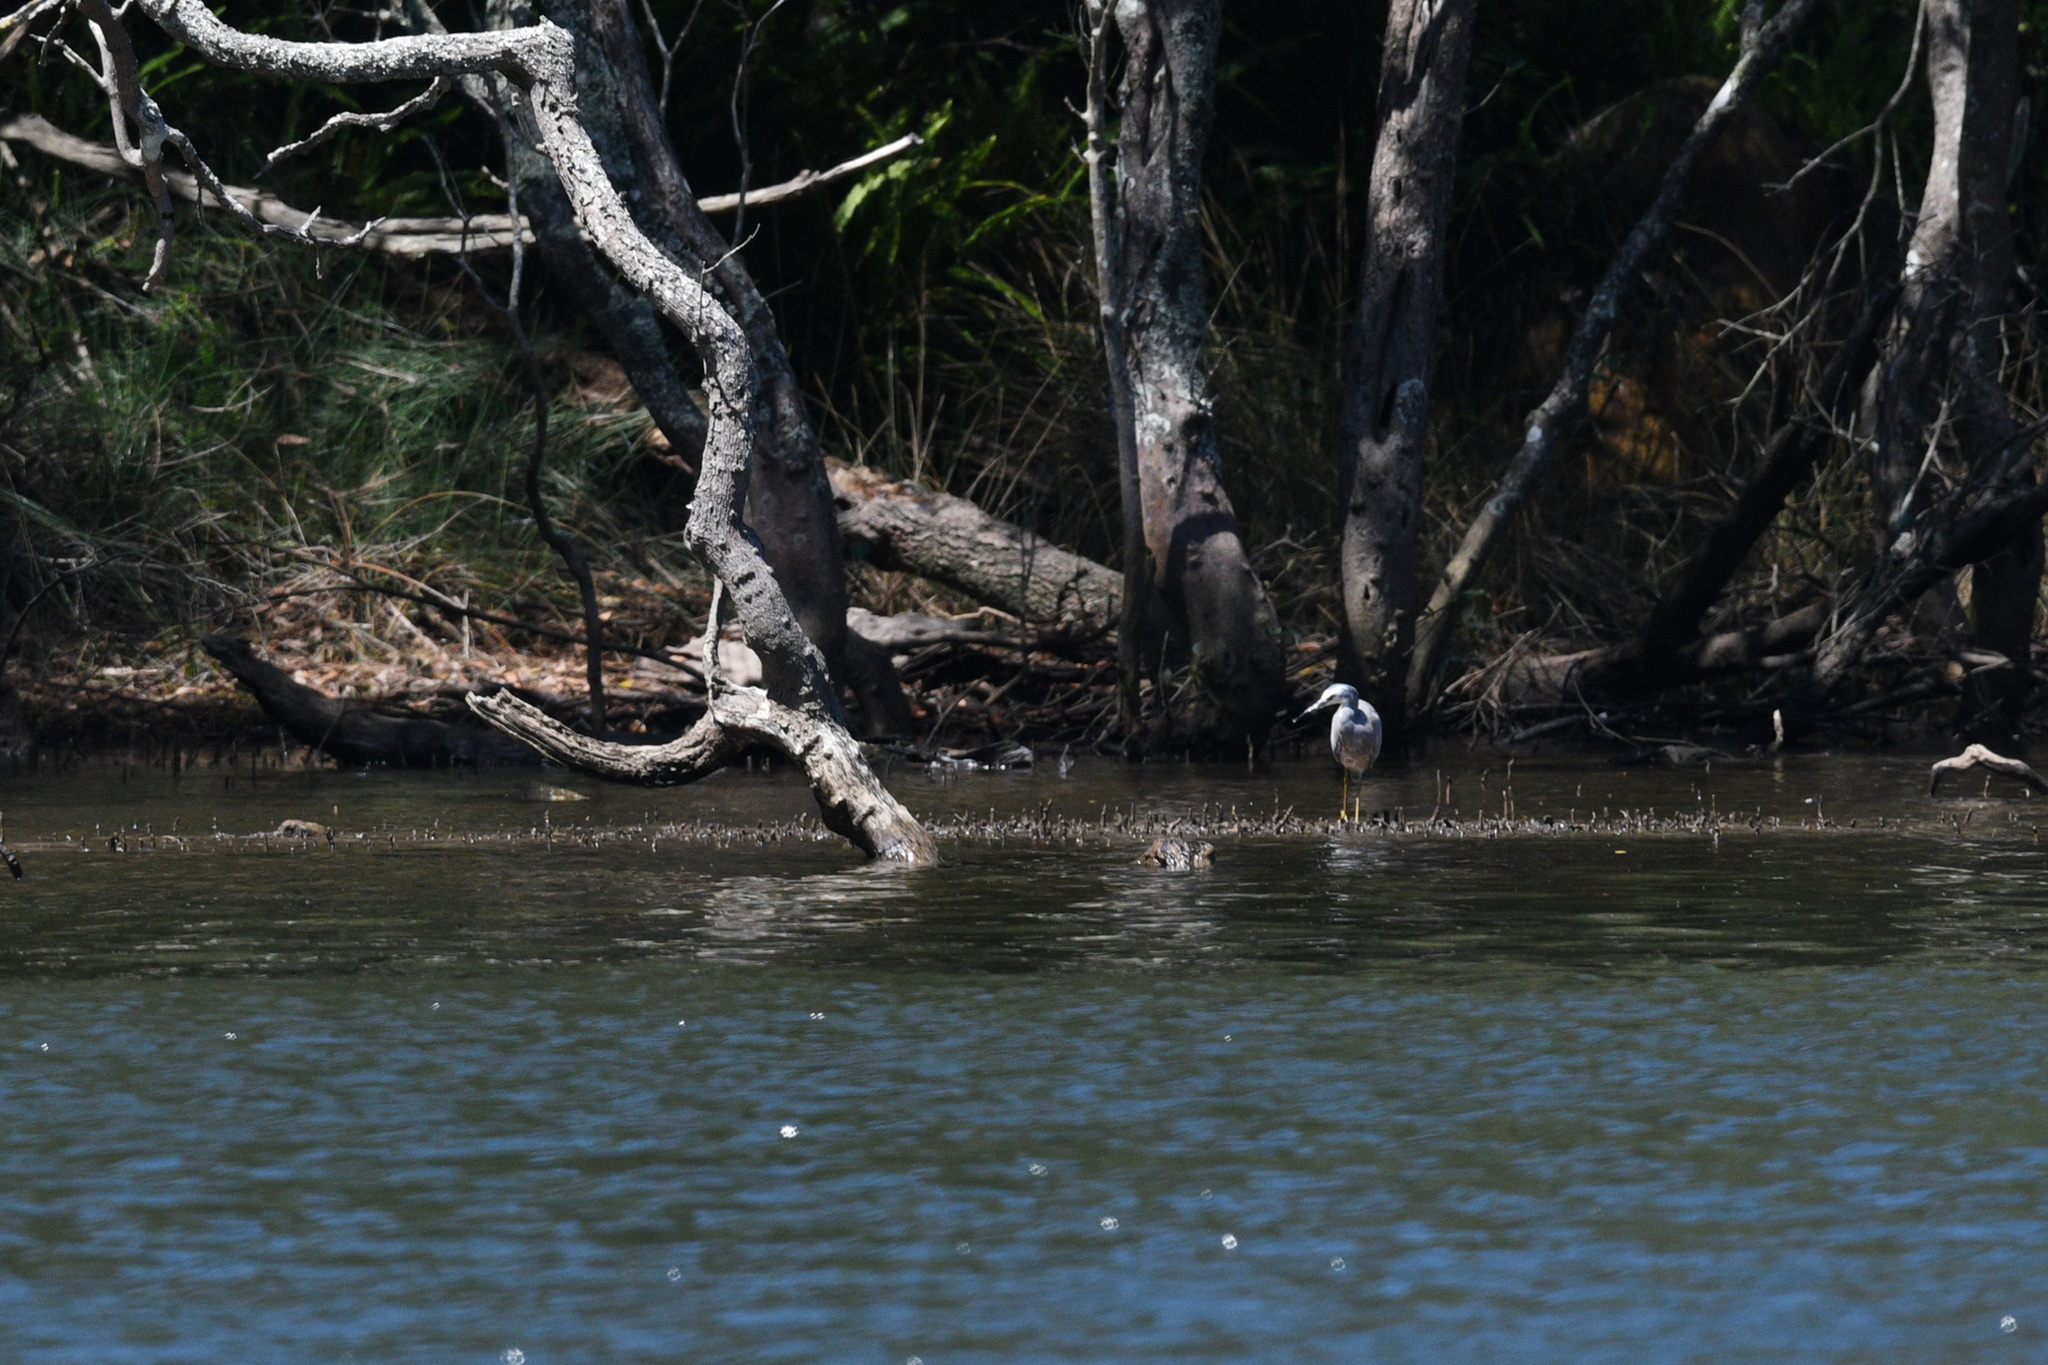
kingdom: Animalia
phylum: Chordata
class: Aves
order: Pelecaniformes
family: Ardeidae
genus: Egretta
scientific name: Egretta novaehollandiae
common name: White-faced heron
